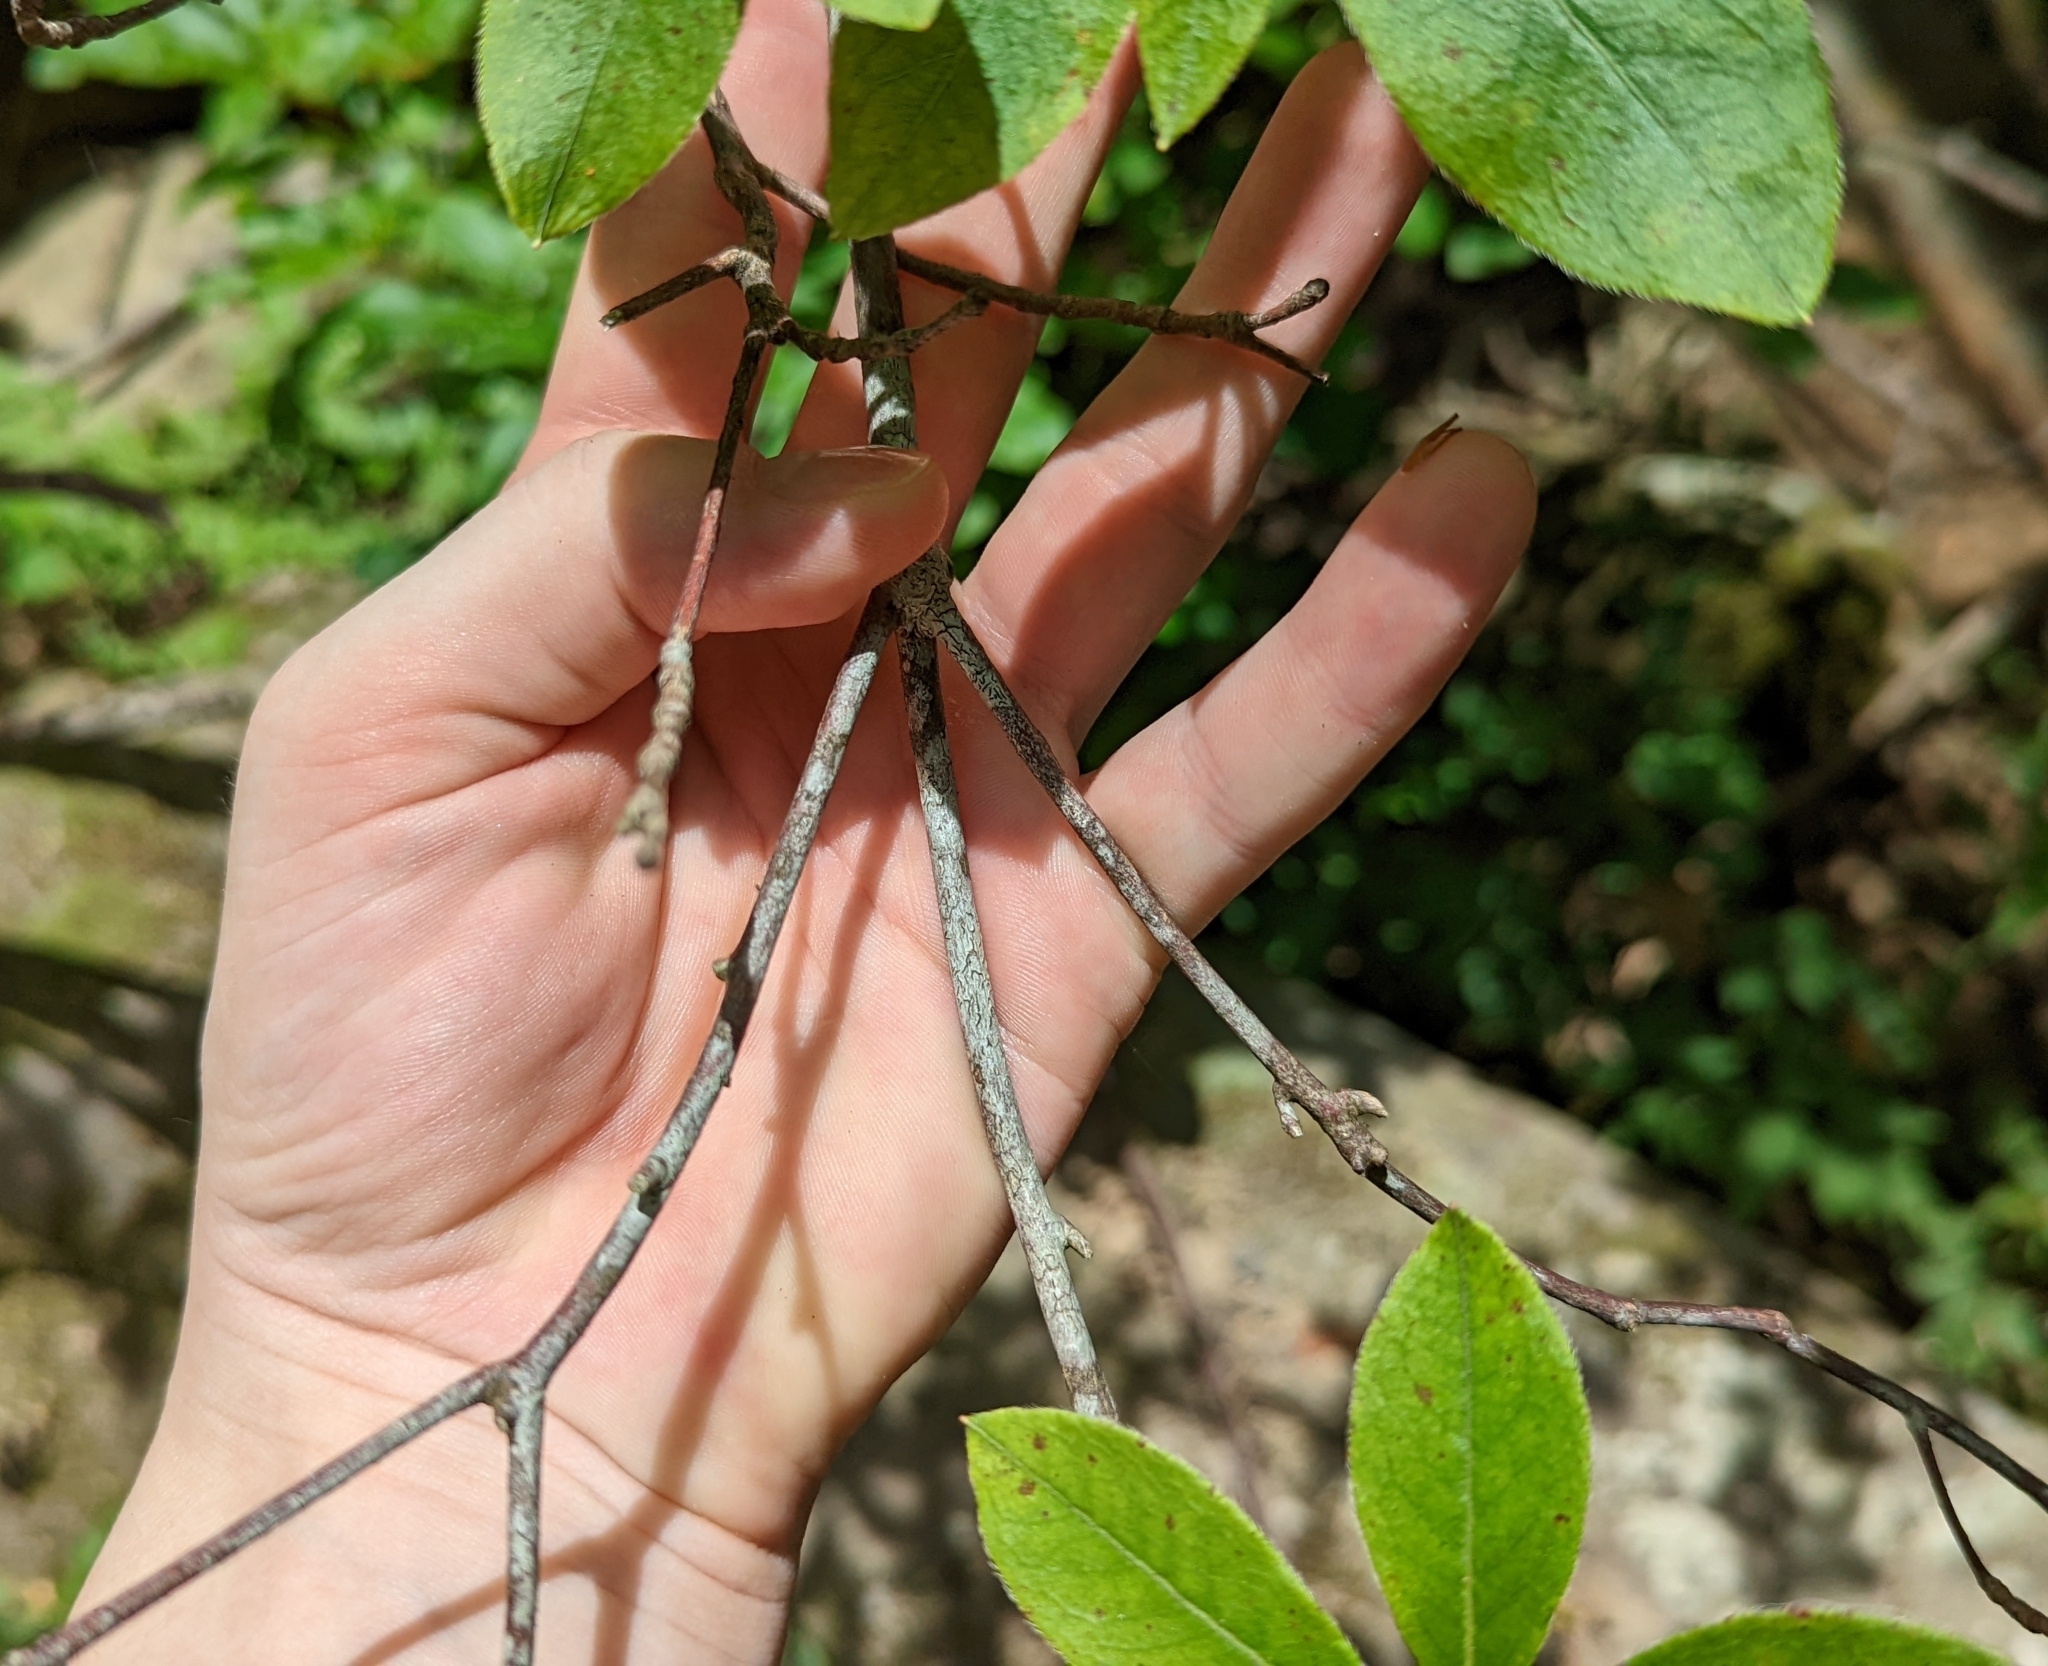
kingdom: Plantae
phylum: Tracheophyta
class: Magnoliopsida
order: Ericales
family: Ericaceae
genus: Rhododendron
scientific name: Rhododendron viscosum
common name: Clammy azalea
